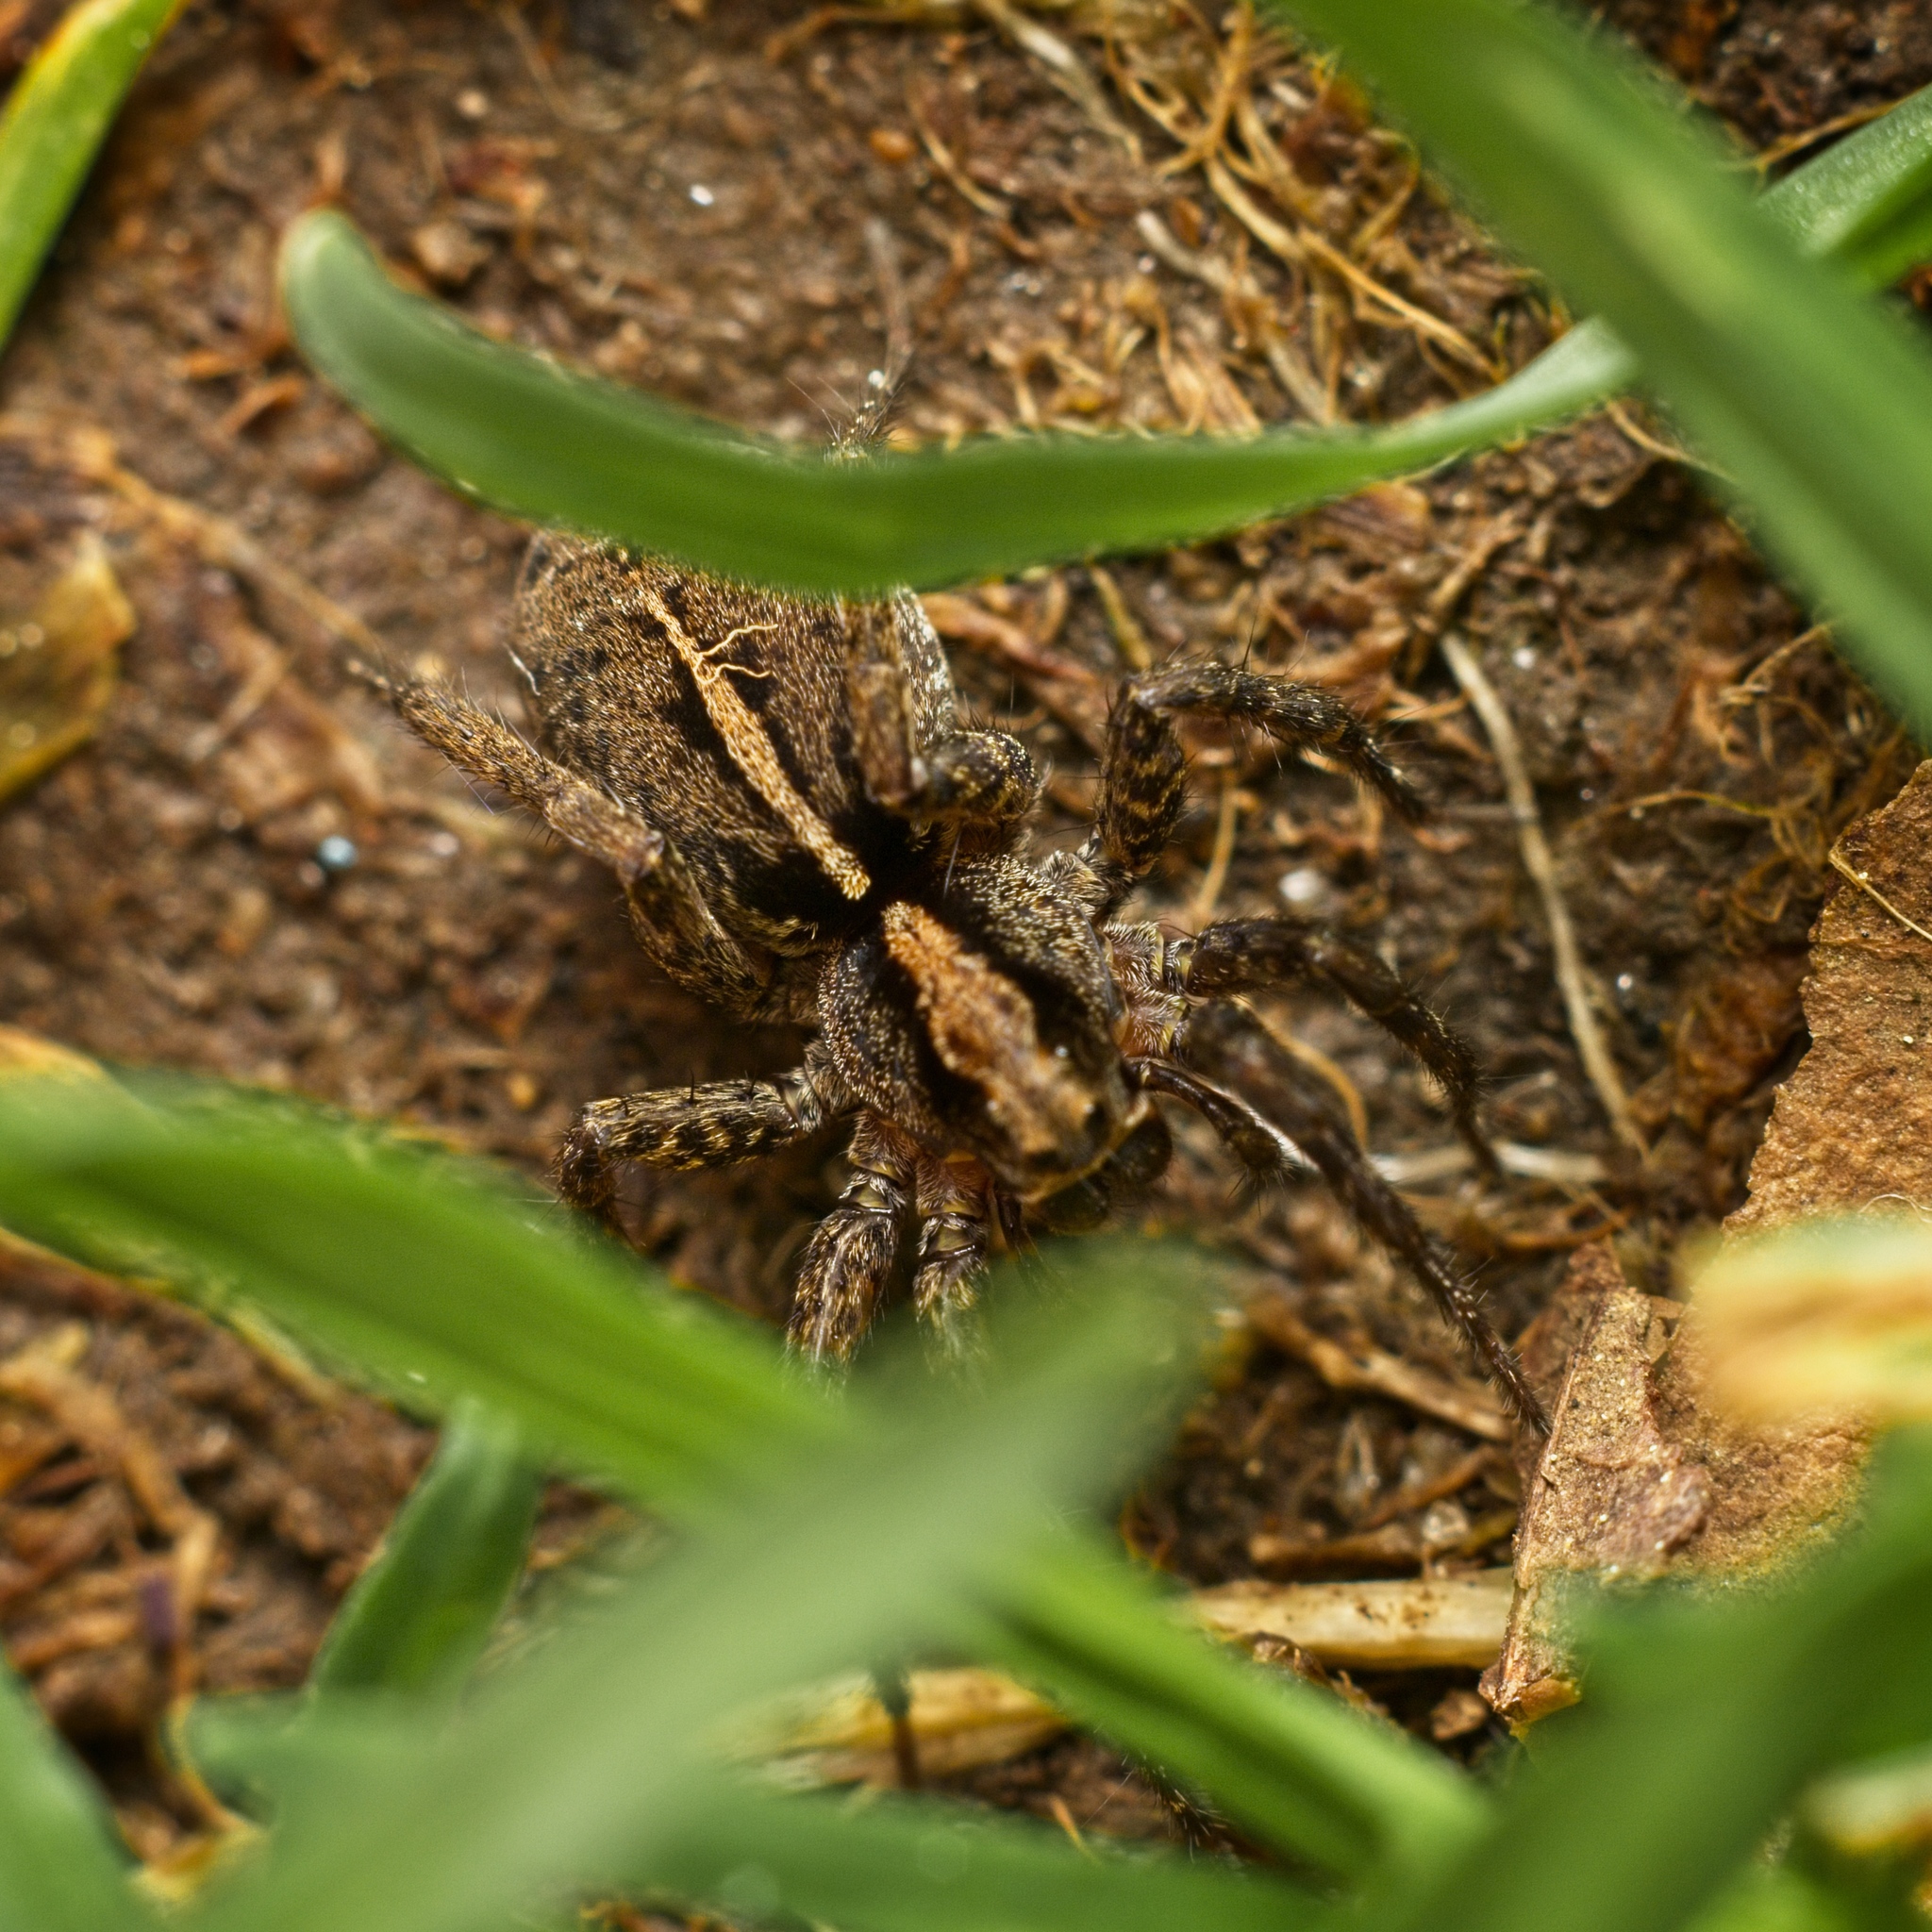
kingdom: Animalia
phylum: Arthropoda
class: Arachnida
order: Araneae
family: Lycosidae
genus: Anoteropsis
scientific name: Anoteropsis hilaris
